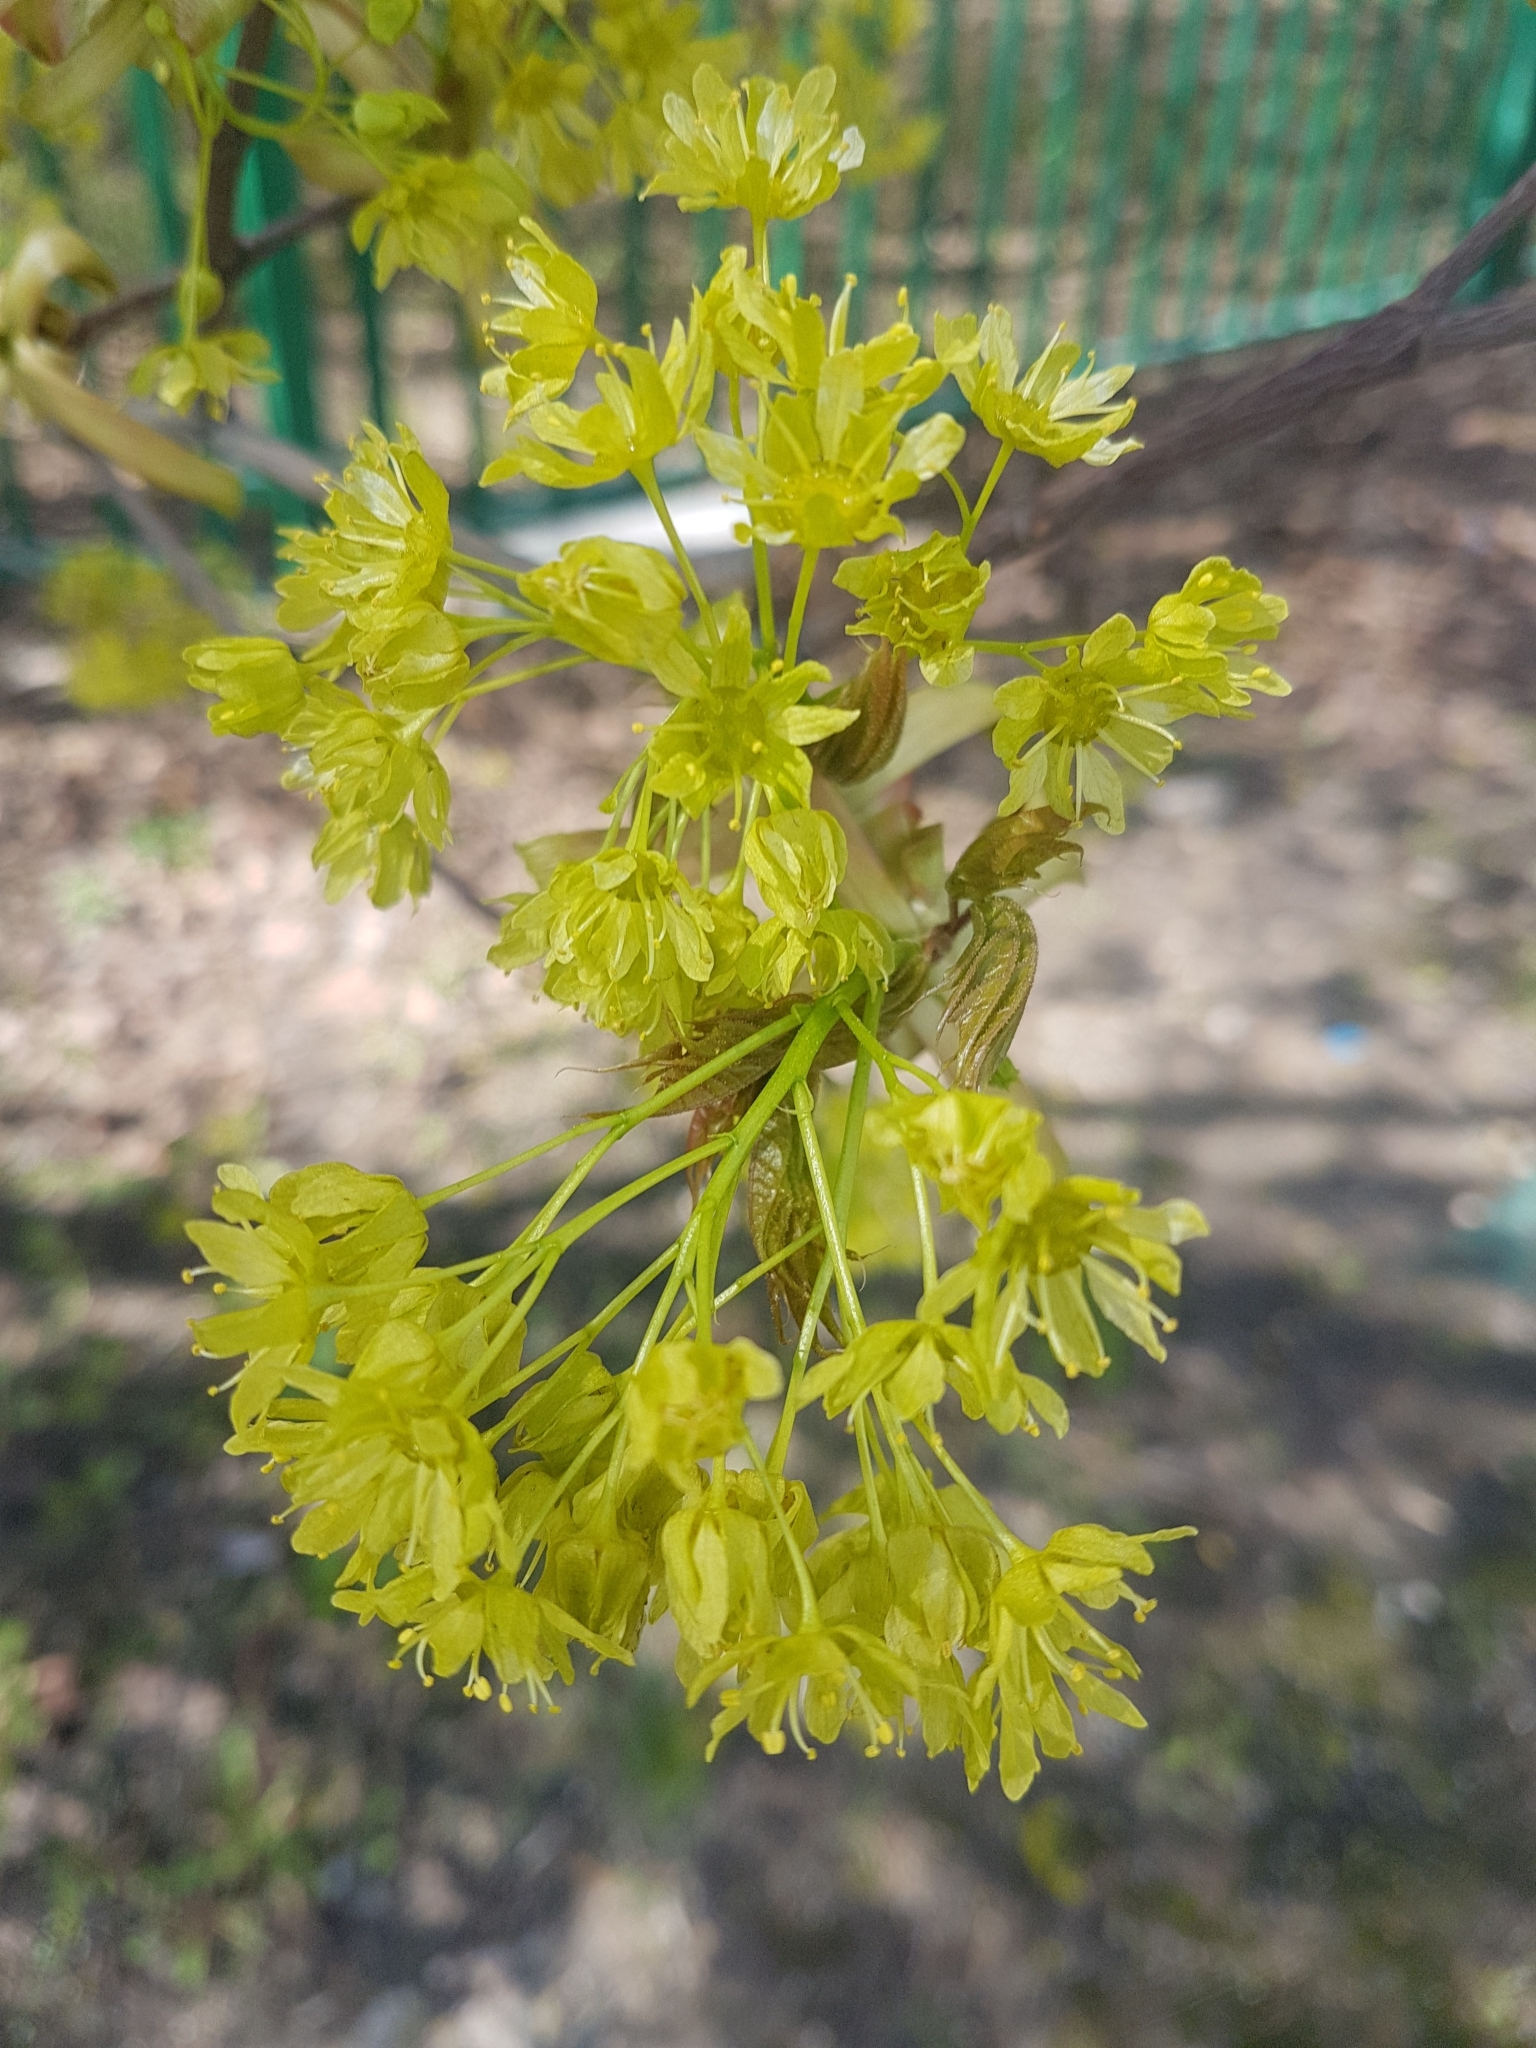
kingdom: Plantae
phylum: Tracheophyta
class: Magnoliopsida
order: Sapindales
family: Sapindaceae
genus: Acer
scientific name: Acer platanoides
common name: Norway maple
